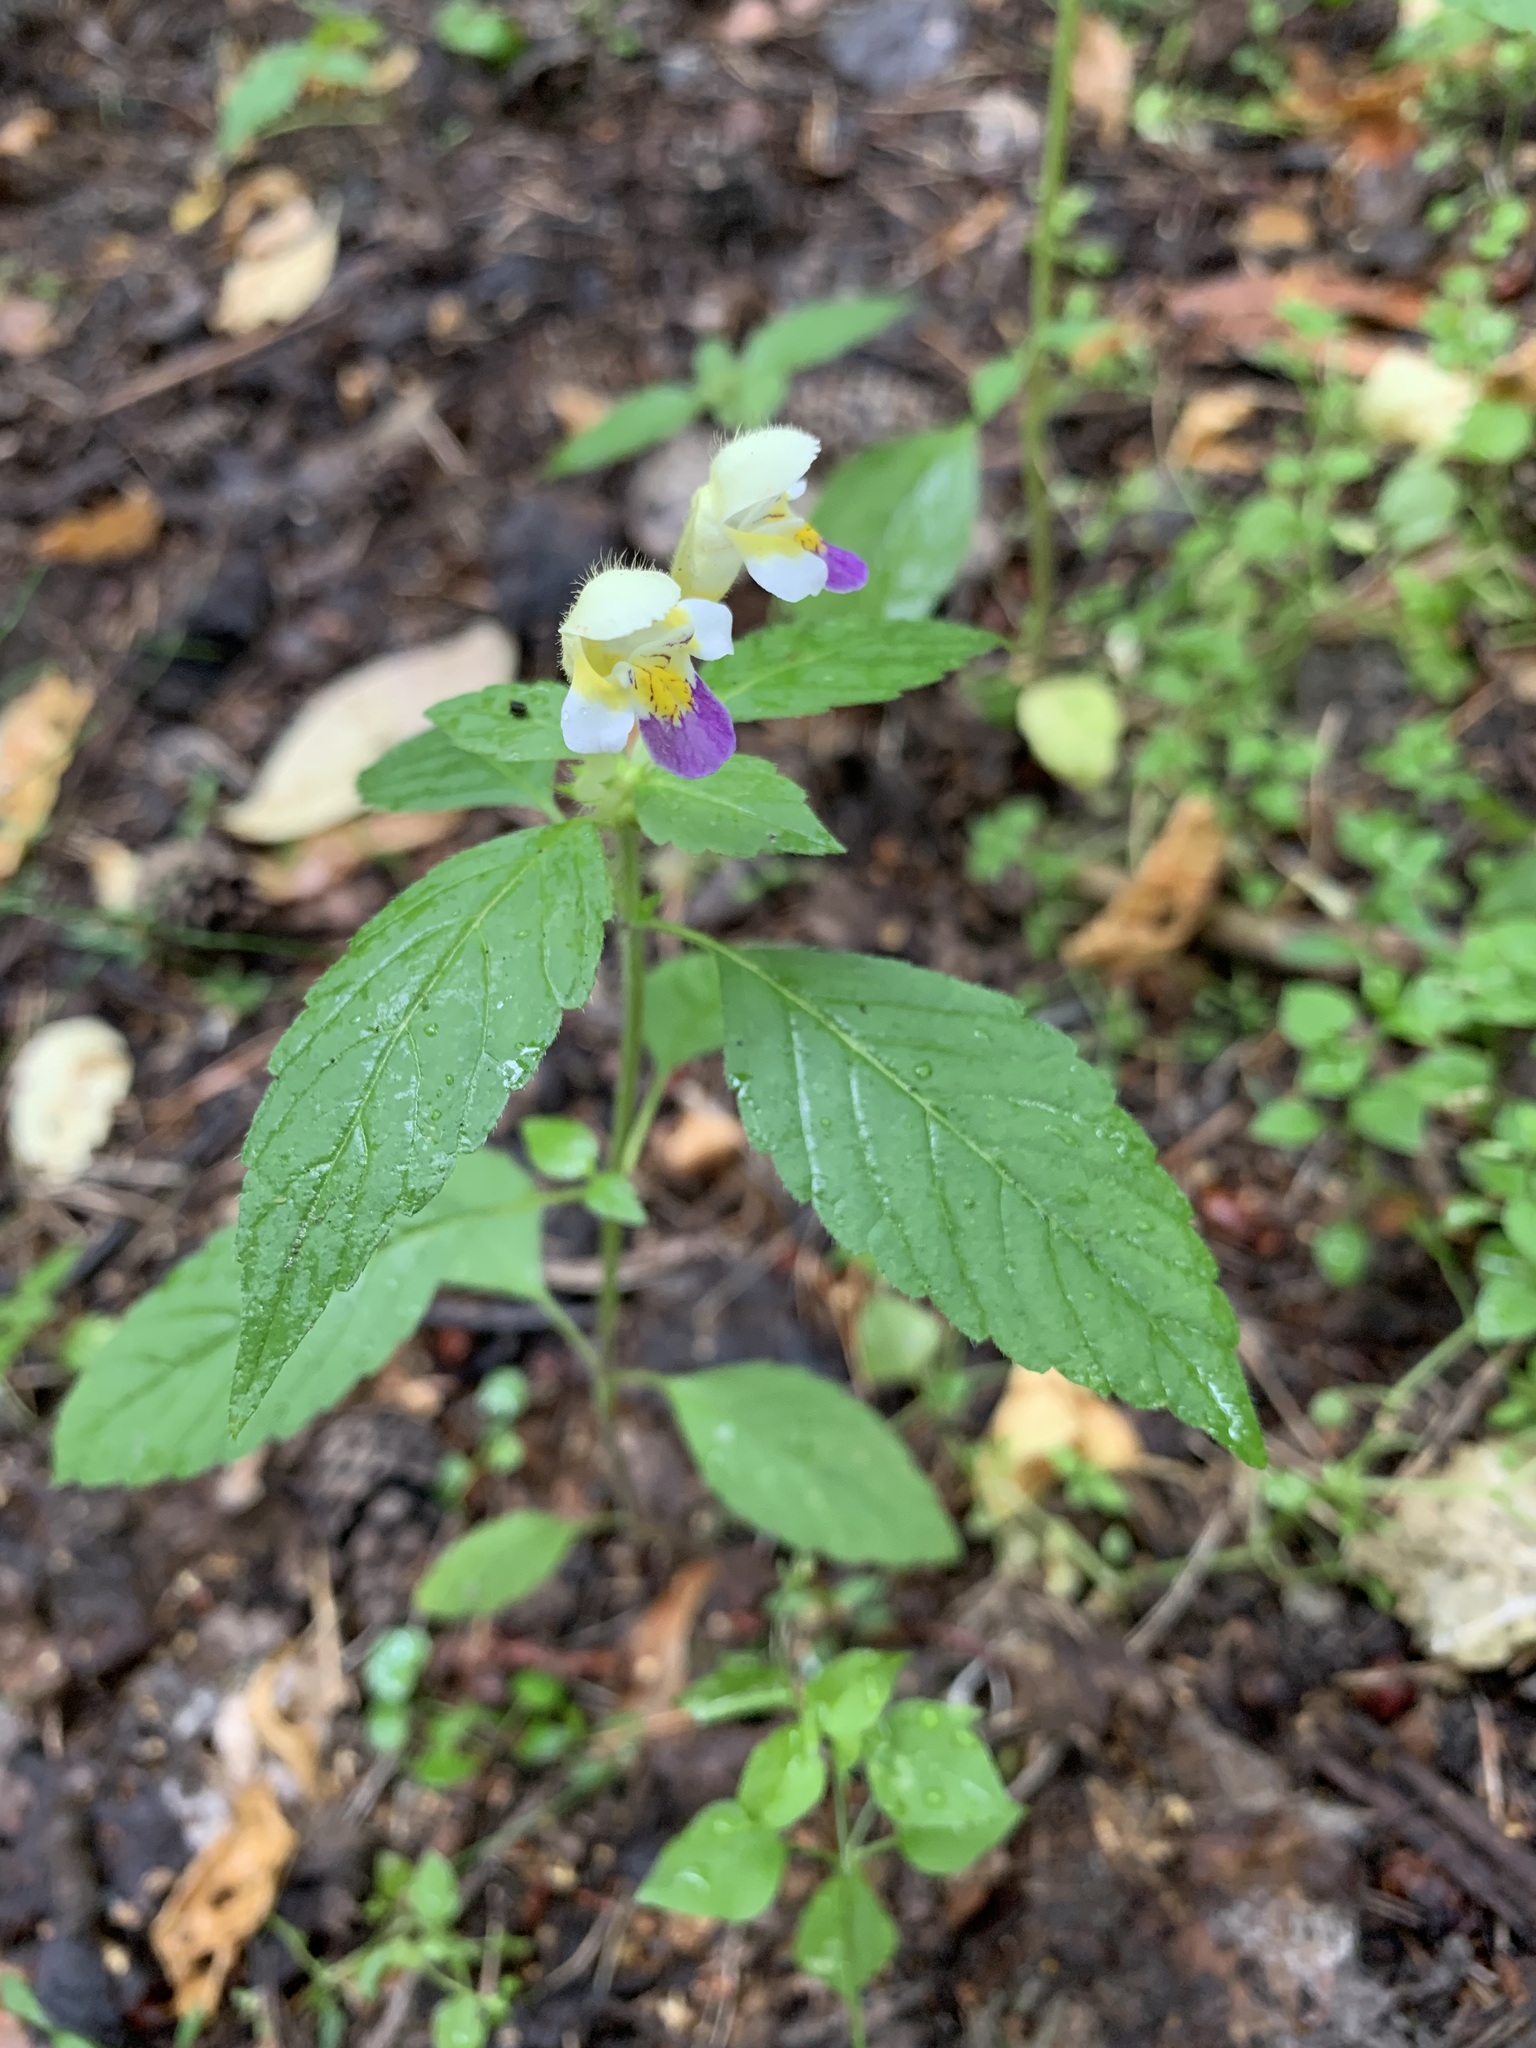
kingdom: Plantae
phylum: Tracheophyta
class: Magnoliopsida
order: Lamiales
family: Lamiaceae
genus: Galeopsis
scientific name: Galeopsis speciosa
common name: Large-flowered hemp-nettle
